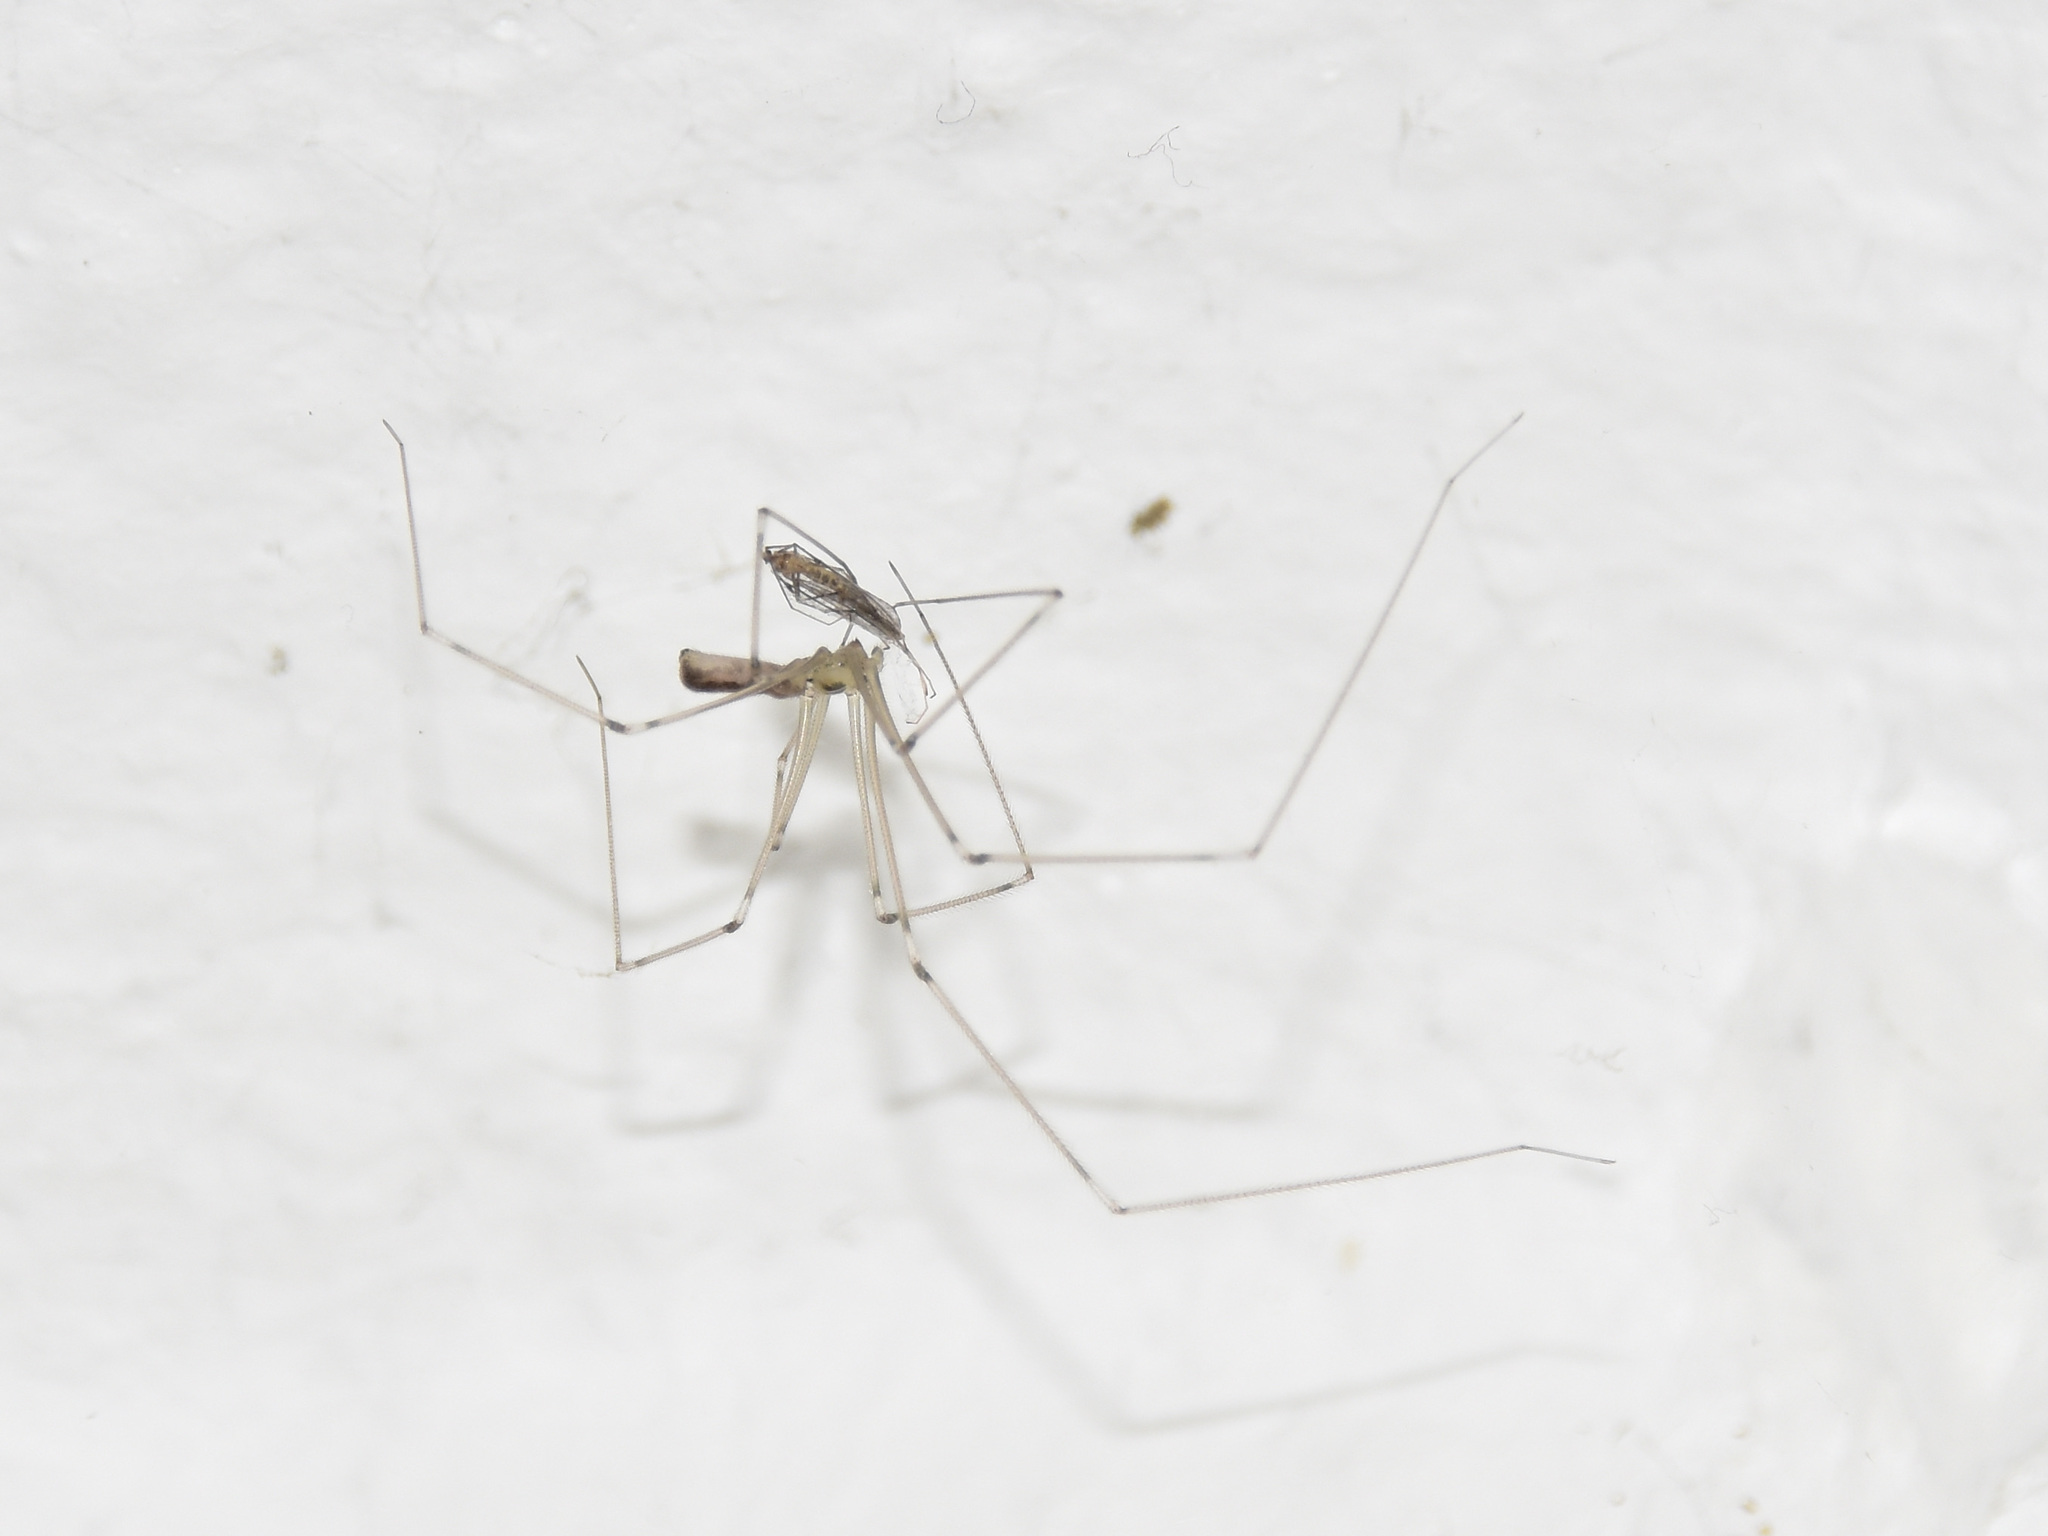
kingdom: Animalia
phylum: Arthropoda
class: Arachnida
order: Araneae
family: Pholcidae
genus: Pholcus
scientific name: Pholcus phalangioides
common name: Longbodied cellar spider
